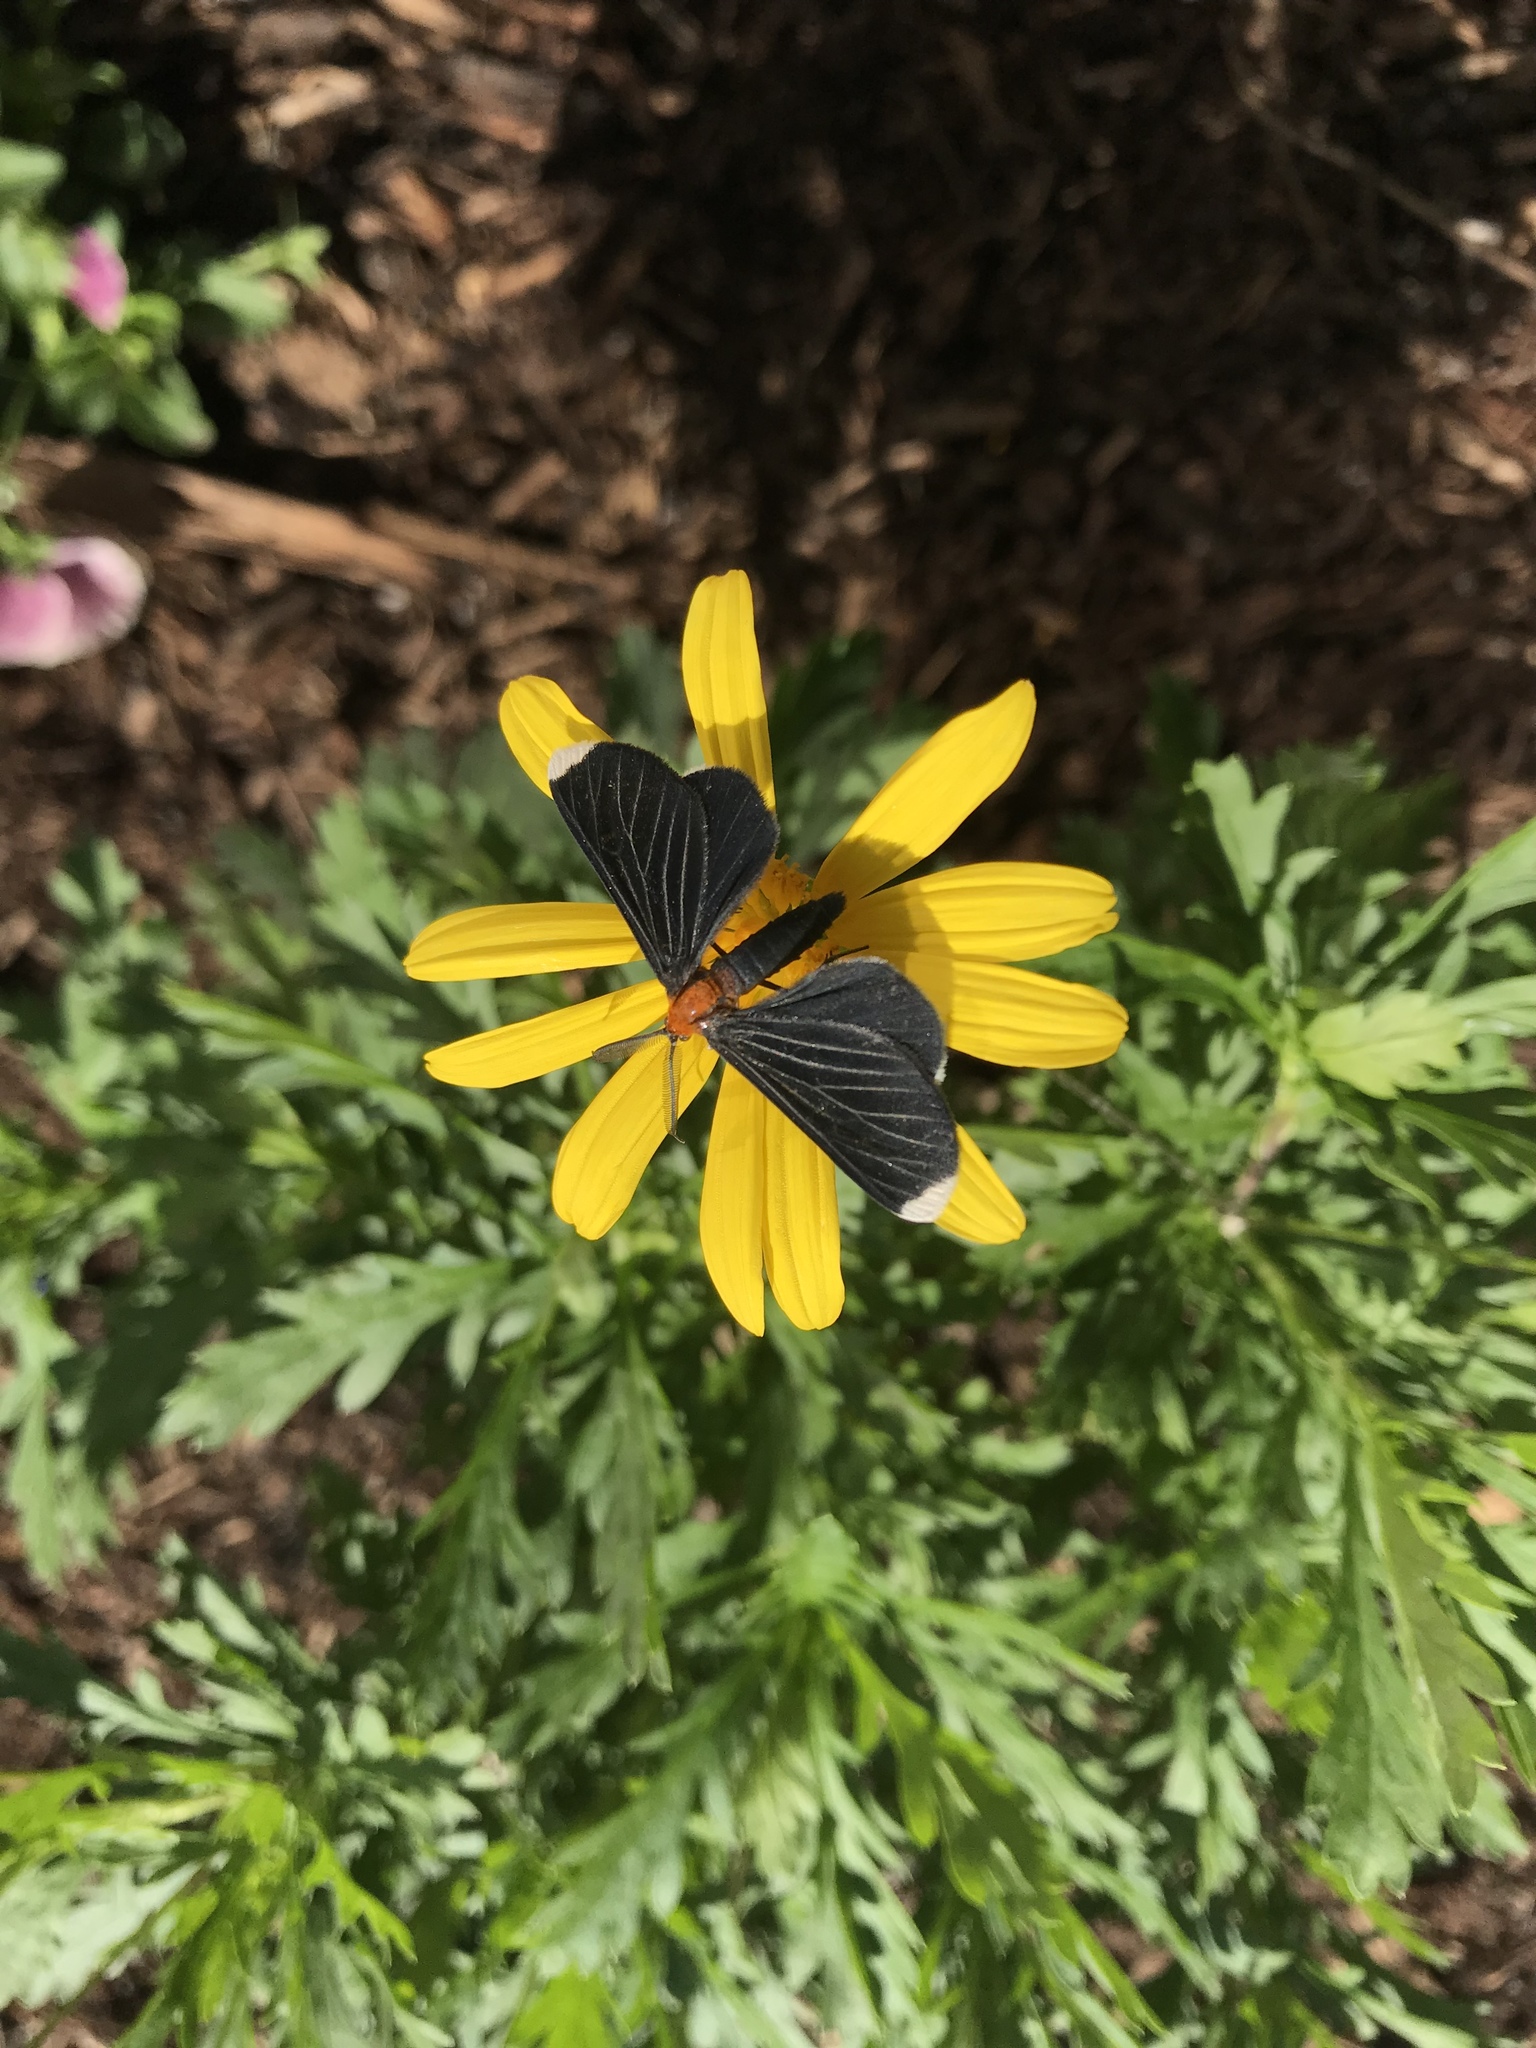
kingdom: Animalia
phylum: Arthropoda
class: Insecta
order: Lepidoptera
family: Geometridae
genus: Melanchroia
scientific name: Melanchroia chephise
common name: White-tipped black
